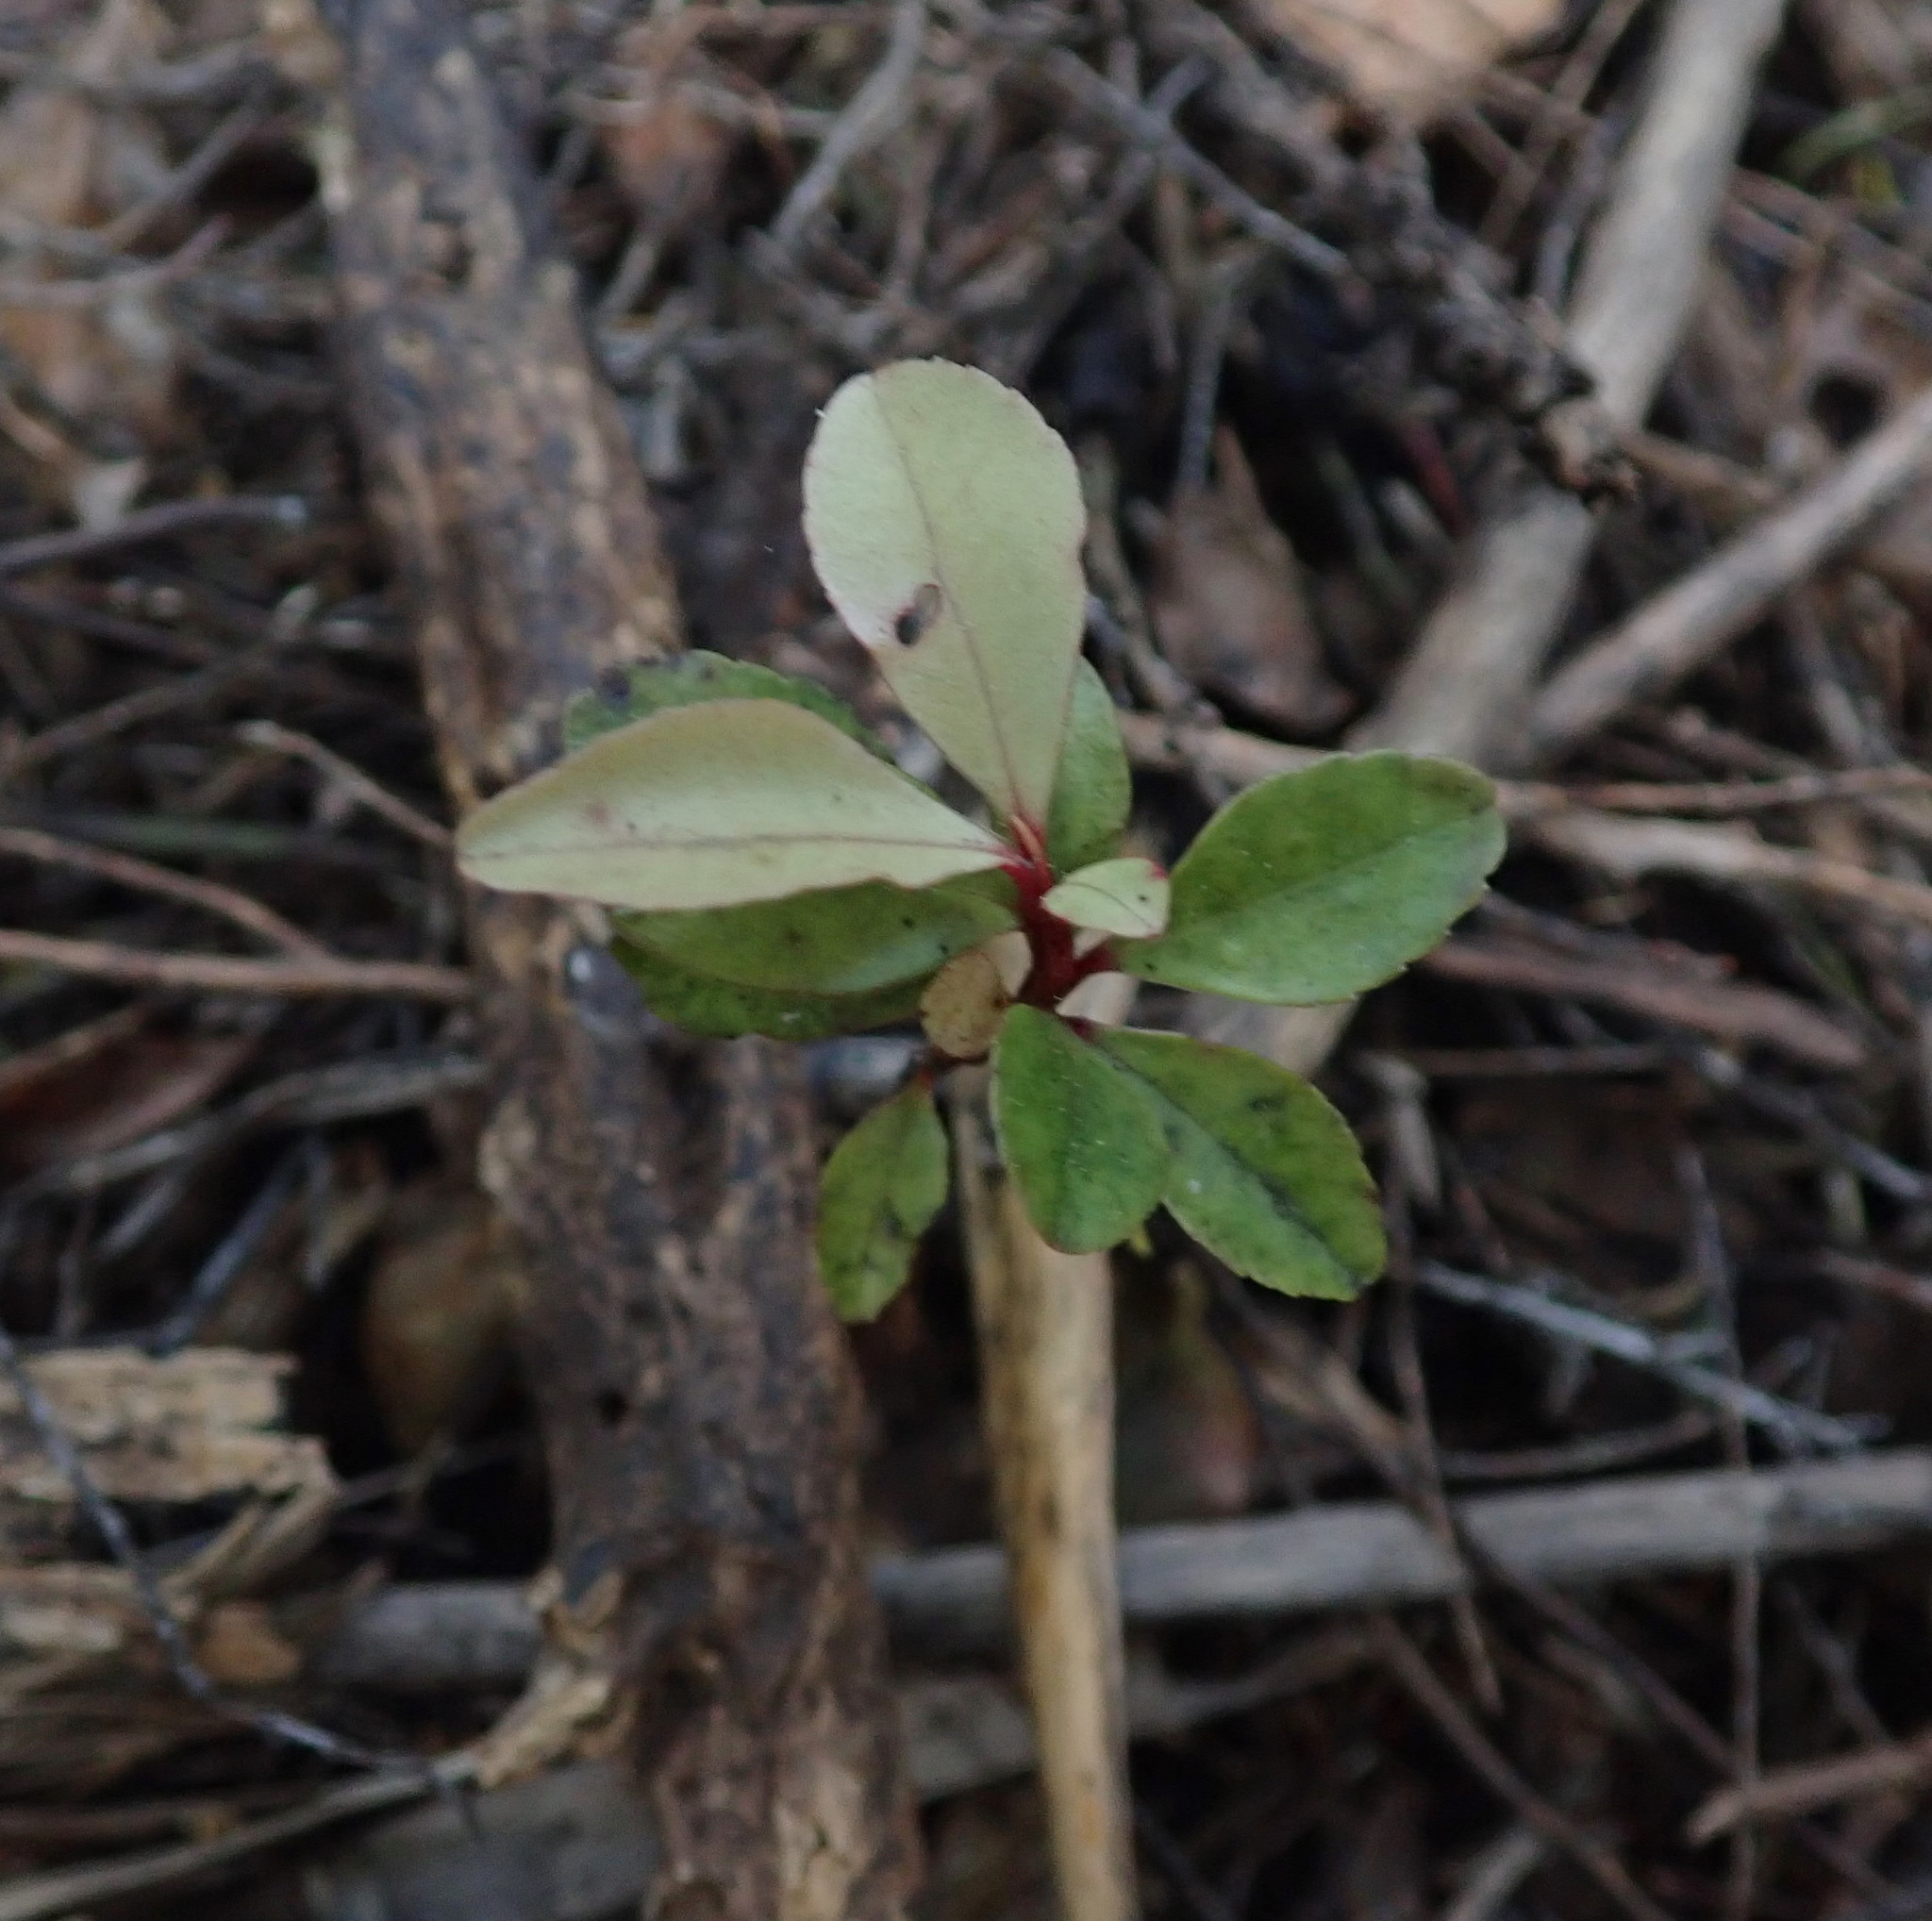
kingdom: Plantae
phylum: Tracheophyta
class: Magnoliopsida
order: Ericales
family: Primulaceae
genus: Myrsine
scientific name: Myrsine australis
